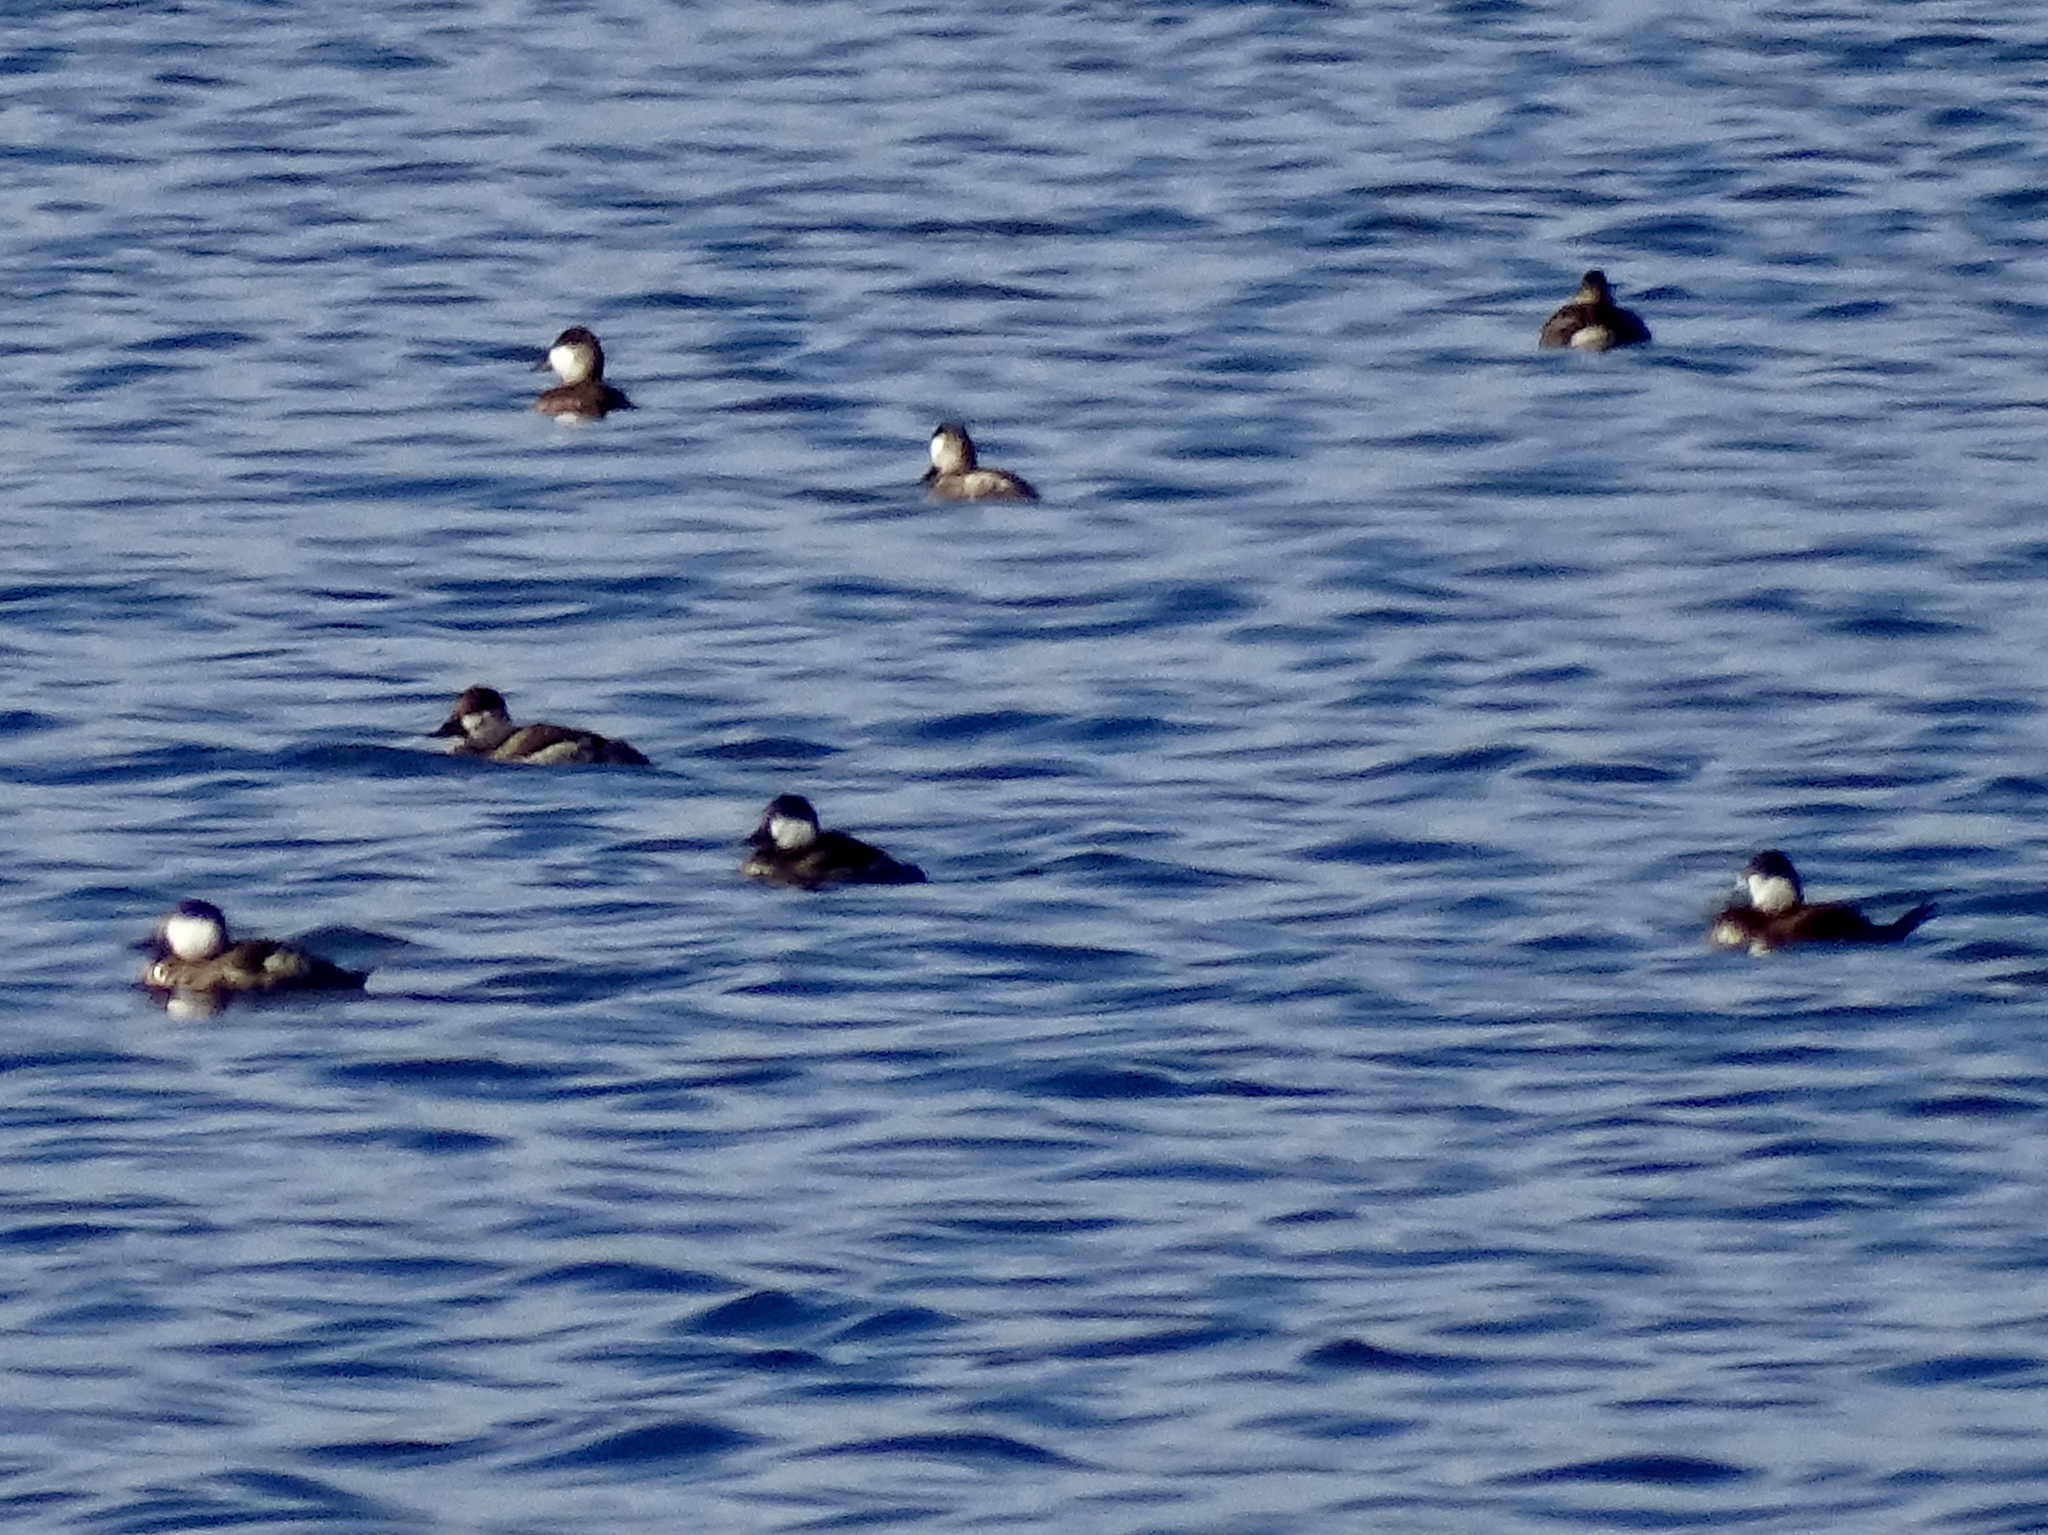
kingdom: Animalia
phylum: Chordata
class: Aves
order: Anseriformes
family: Anatidae
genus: Oxyura
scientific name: Oxyura jamaicensis
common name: Ruddy duck
